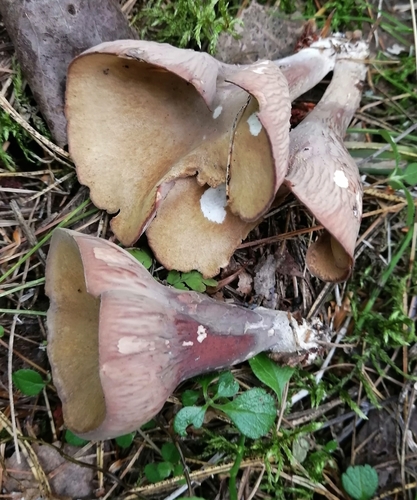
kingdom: Fungi
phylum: Basidiomycota
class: Agaricomycetes
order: Gomphales
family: Gomphaceae
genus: Gomphus
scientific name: Gomphus clavatus
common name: Pig's ear
